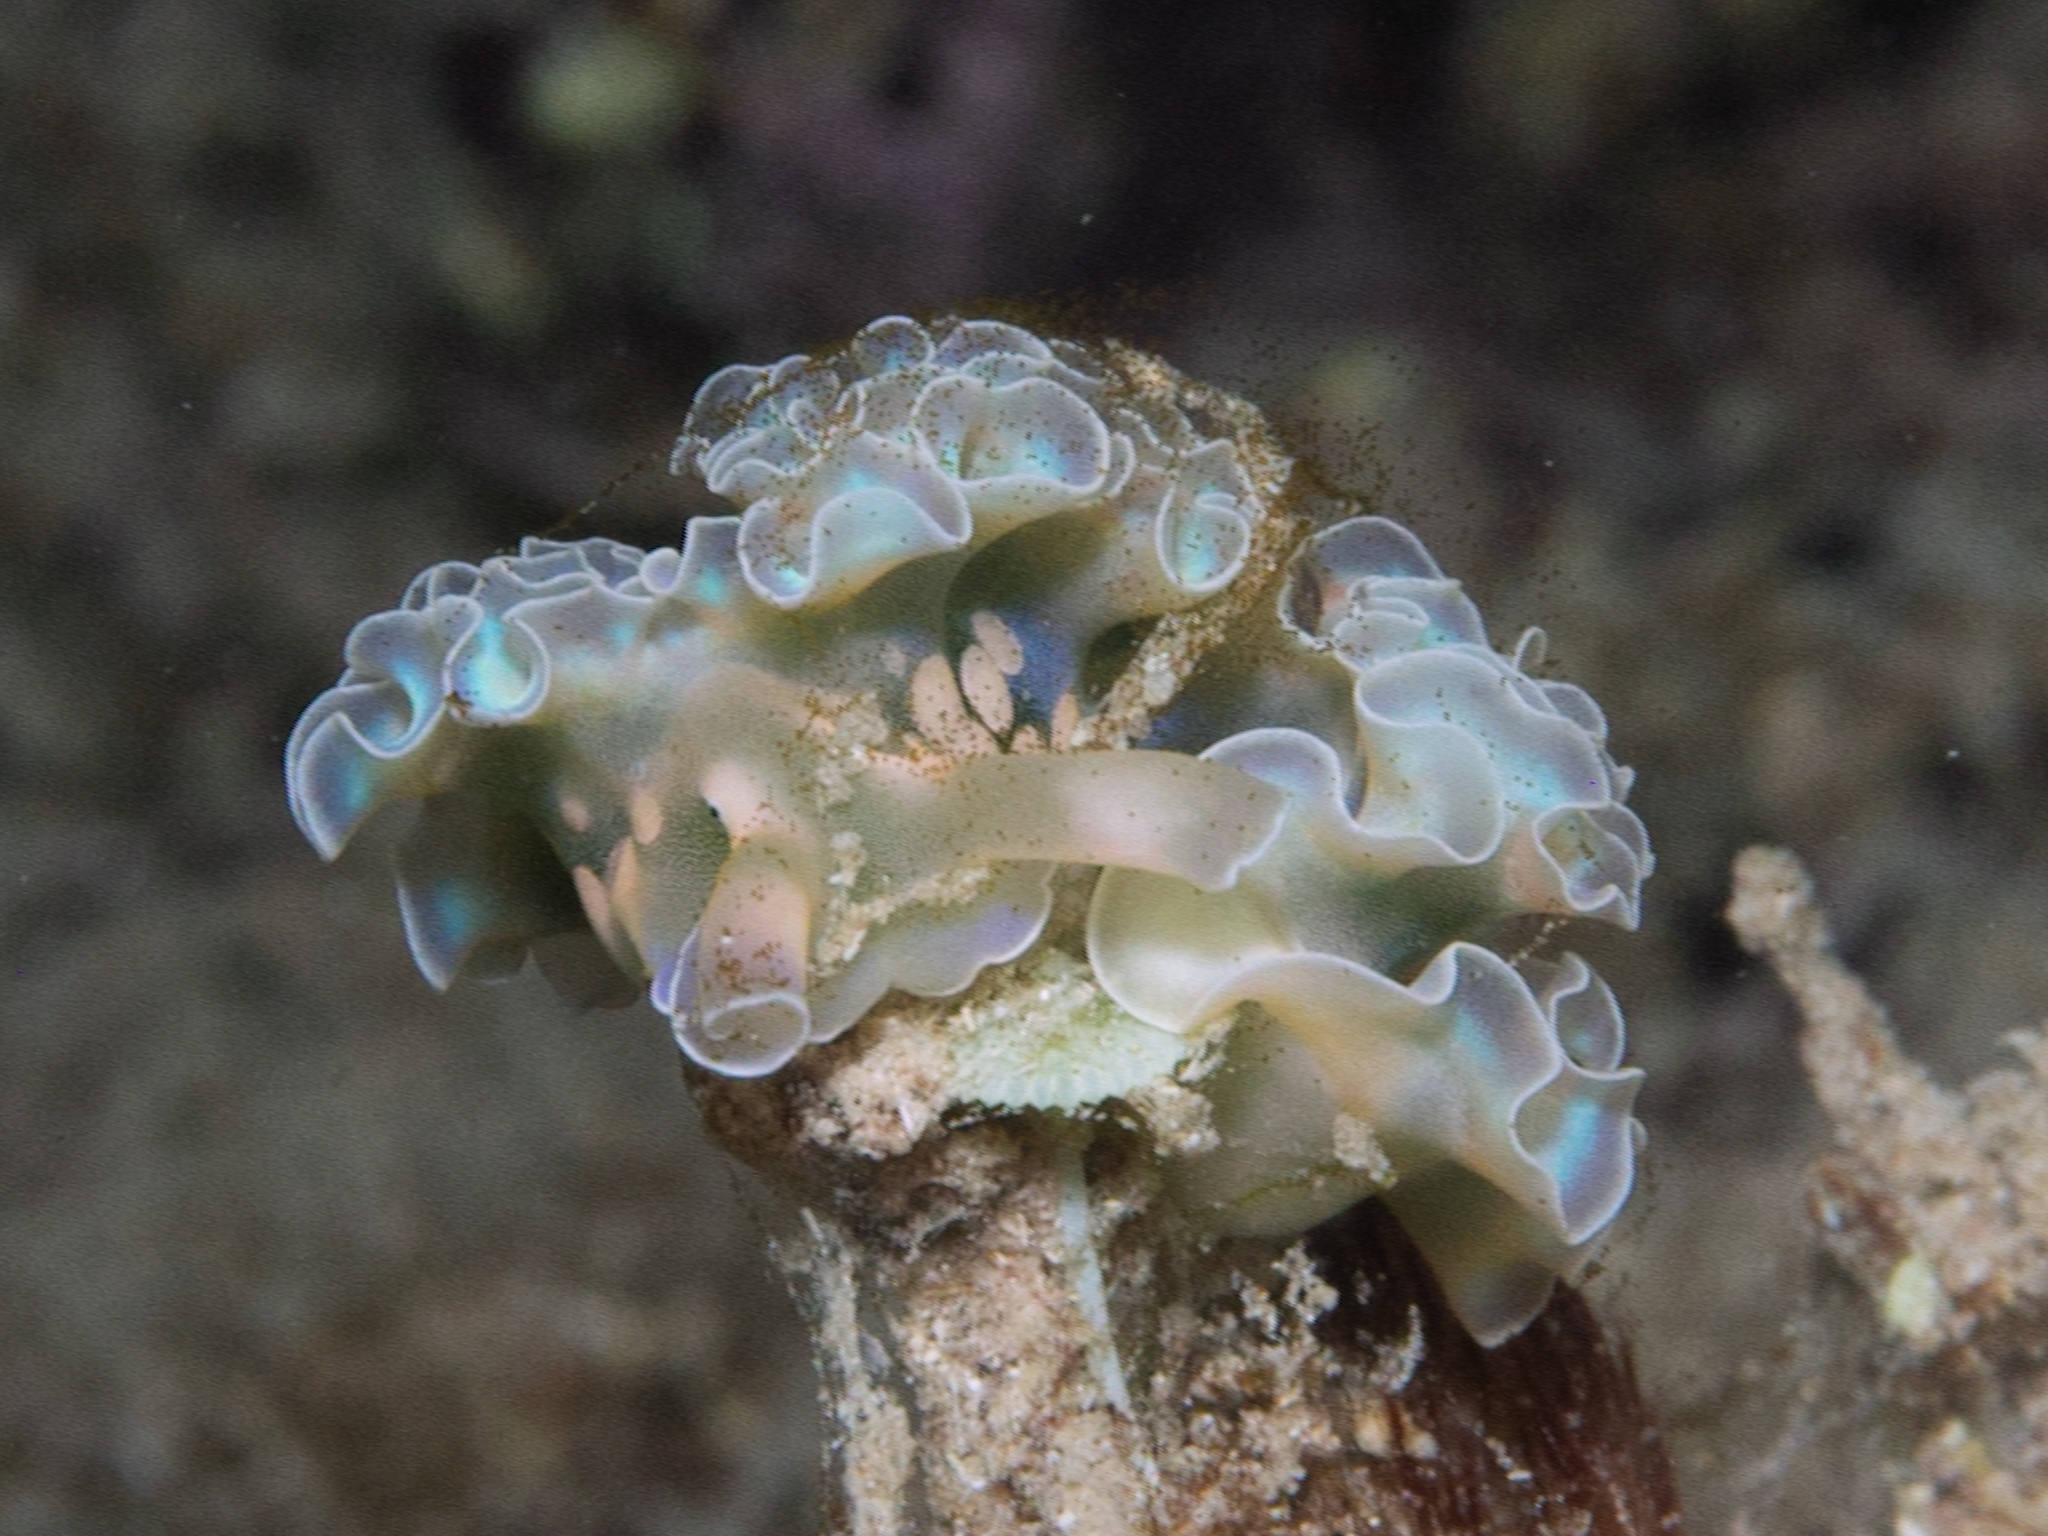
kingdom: Animalia
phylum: Mollusca
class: Gastropoda
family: Plakobranchidae
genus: Elysia
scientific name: Elysia crispata
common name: Lettuce slug
